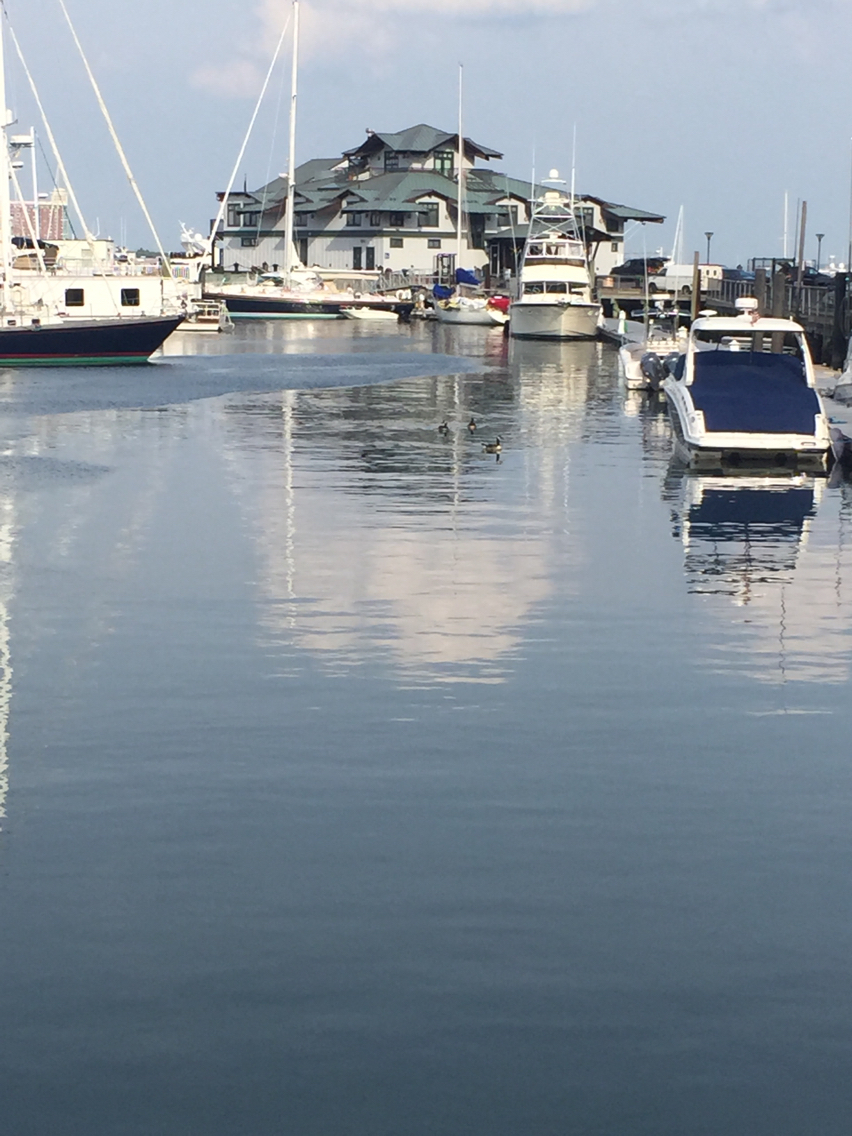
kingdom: Animalia
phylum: Chordata
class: Aves
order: Anseriformes
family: Anatidae
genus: Branta
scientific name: Branta canadensis
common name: Canada goose
